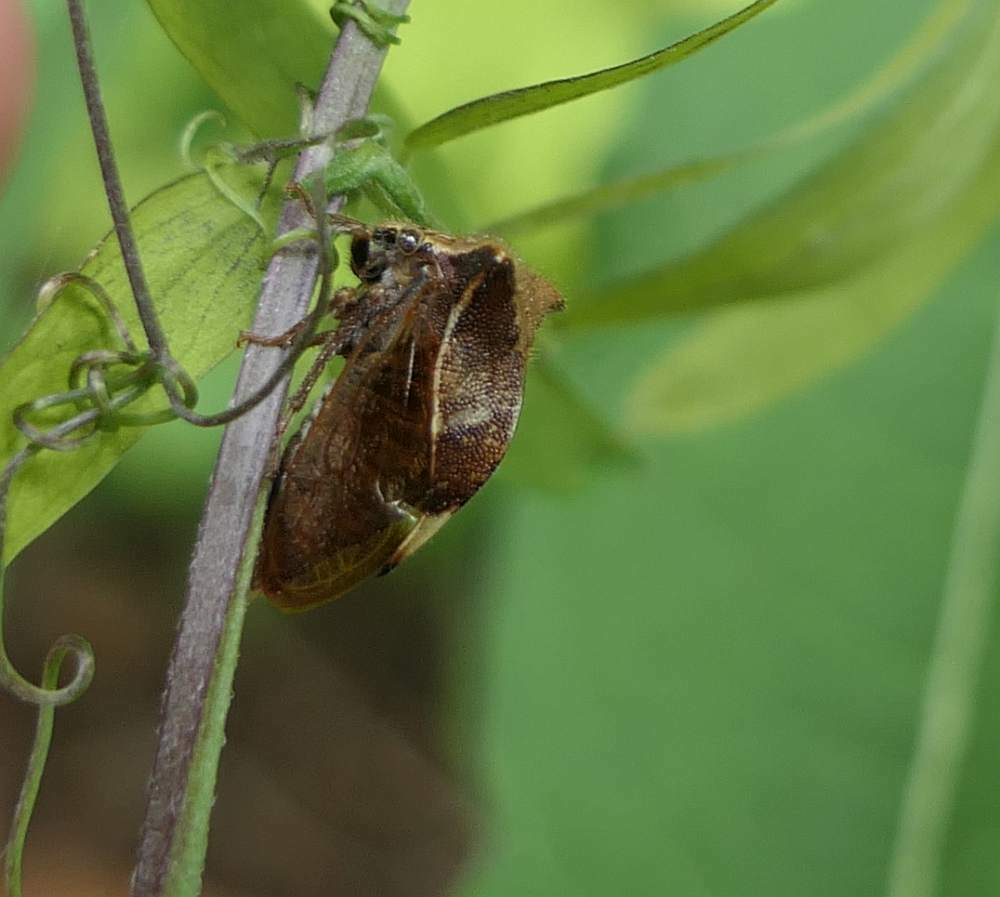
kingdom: Animalia
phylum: Arthropoda
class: Insecta
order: Hemiptera
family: Membracidae
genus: Stictocephala
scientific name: Stictocephala diceros
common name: Two-horned treehopper
